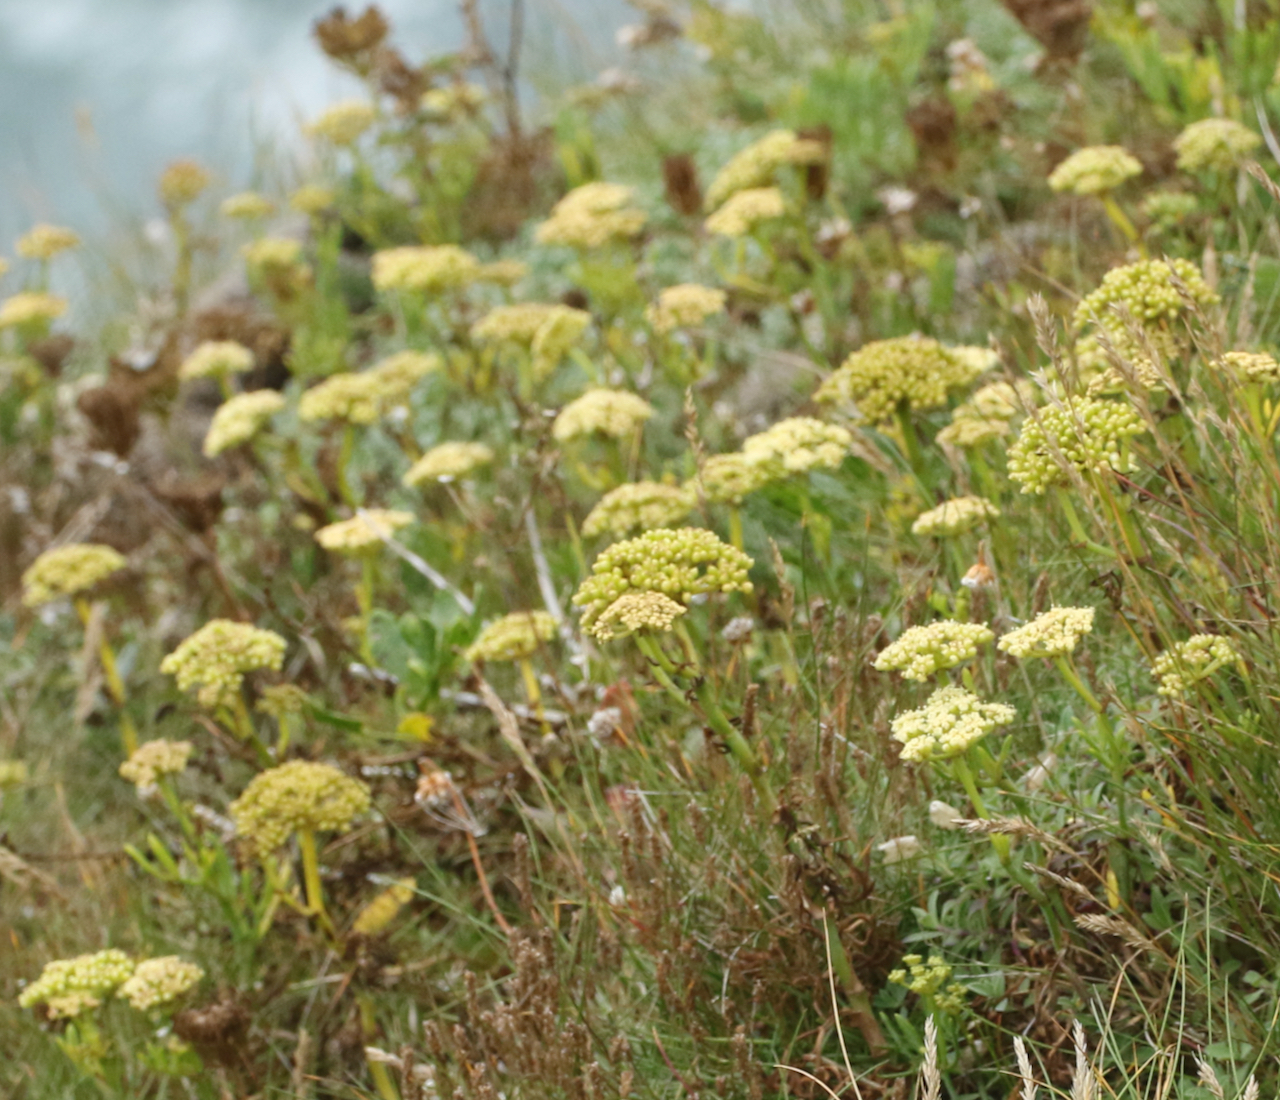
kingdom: Plantae
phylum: Tracheophyta
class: Magnoliopsida
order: Apiales
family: Apiaceae
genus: Crithmum
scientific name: Crithmum maritimum
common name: Rock samphire
